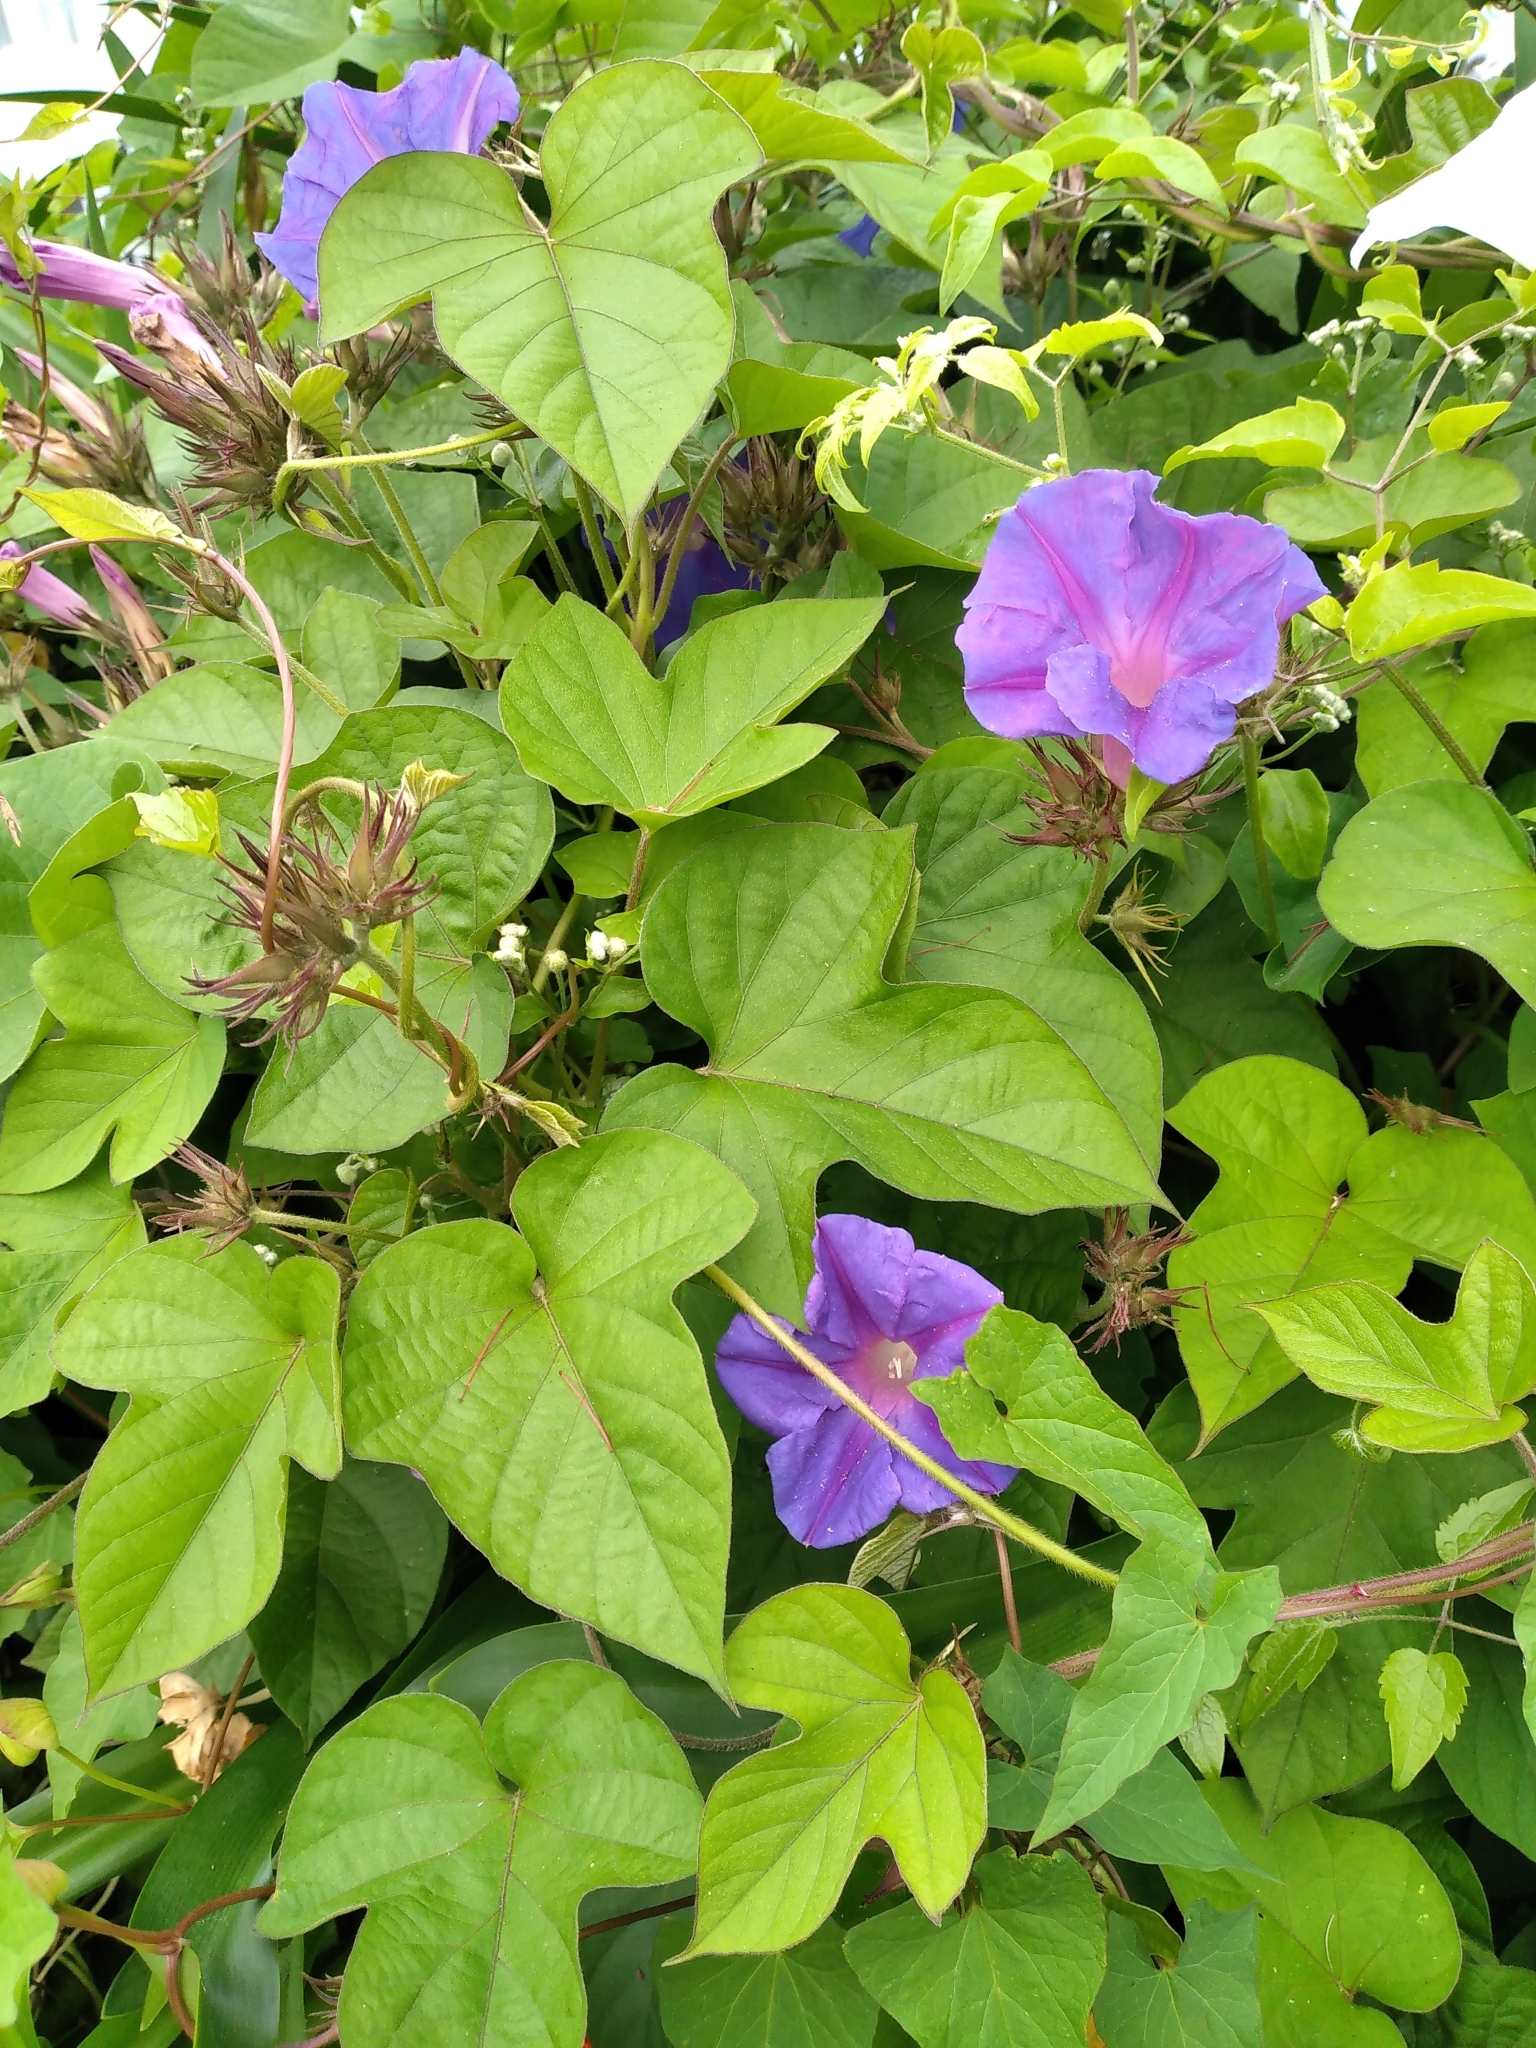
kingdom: Plantae
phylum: Tracheophyta
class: Magnoliopsida
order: Solanales
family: Convolvulaceae
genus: Ipomoea
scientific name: Ipomoea indica
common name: Blue dawnflower
